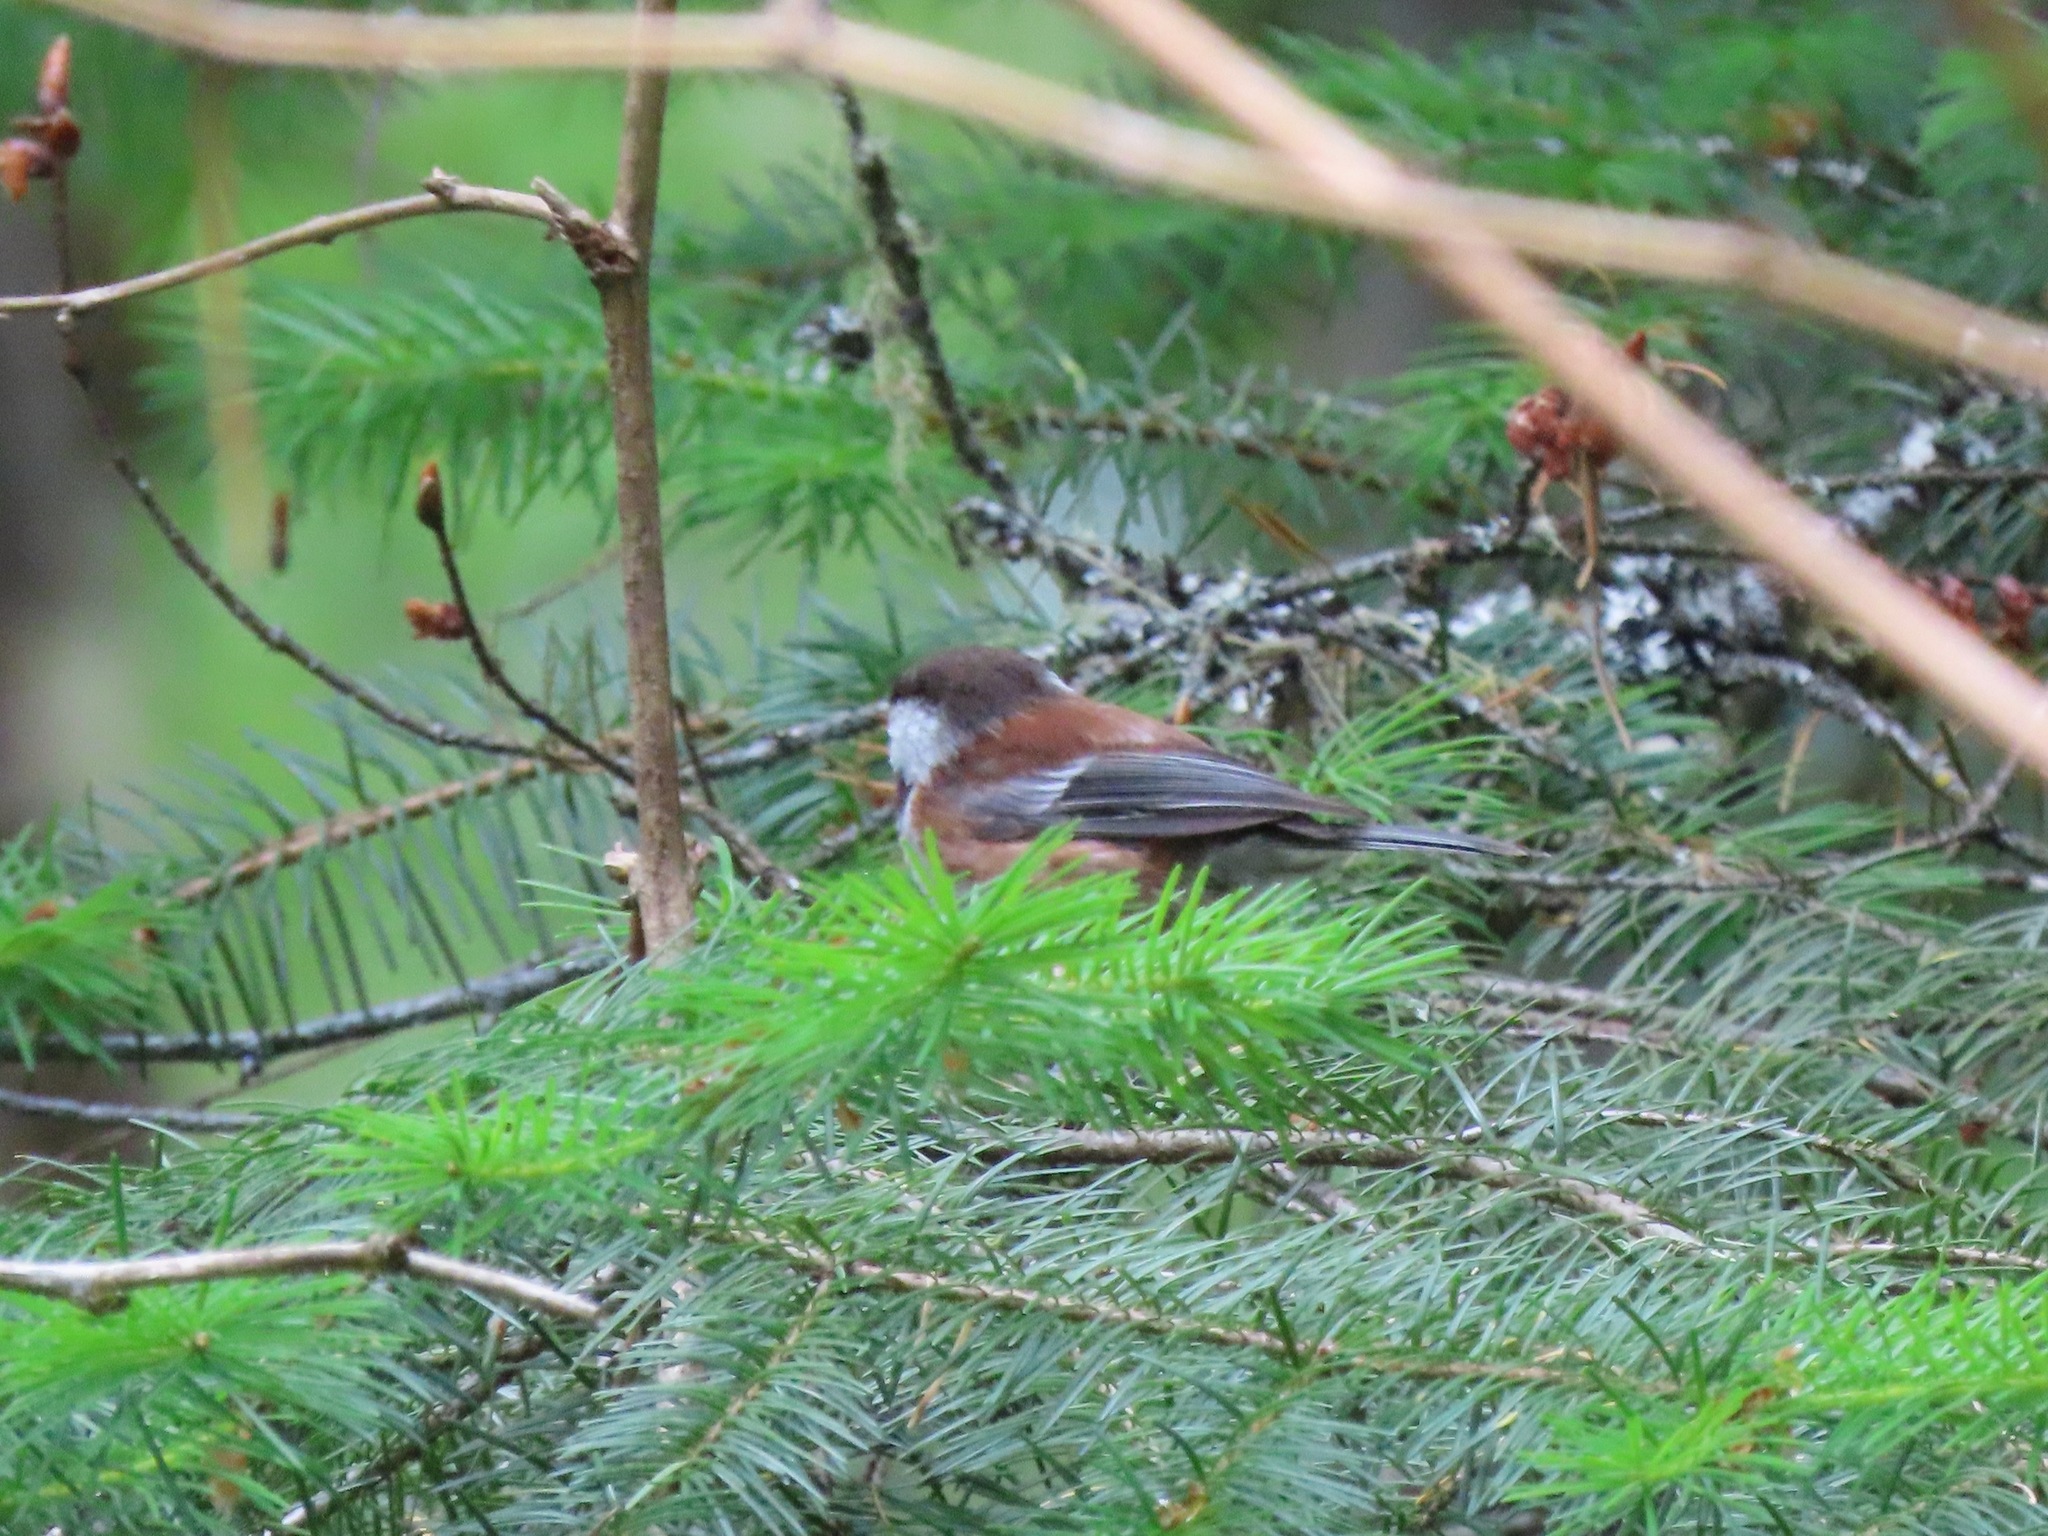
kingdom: Animalia
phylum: Chordata
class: Aves
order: Passeriformes
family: Paridae
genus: Poecile
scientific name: Poecile rufescens
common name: Chestnut-backed chickadee
